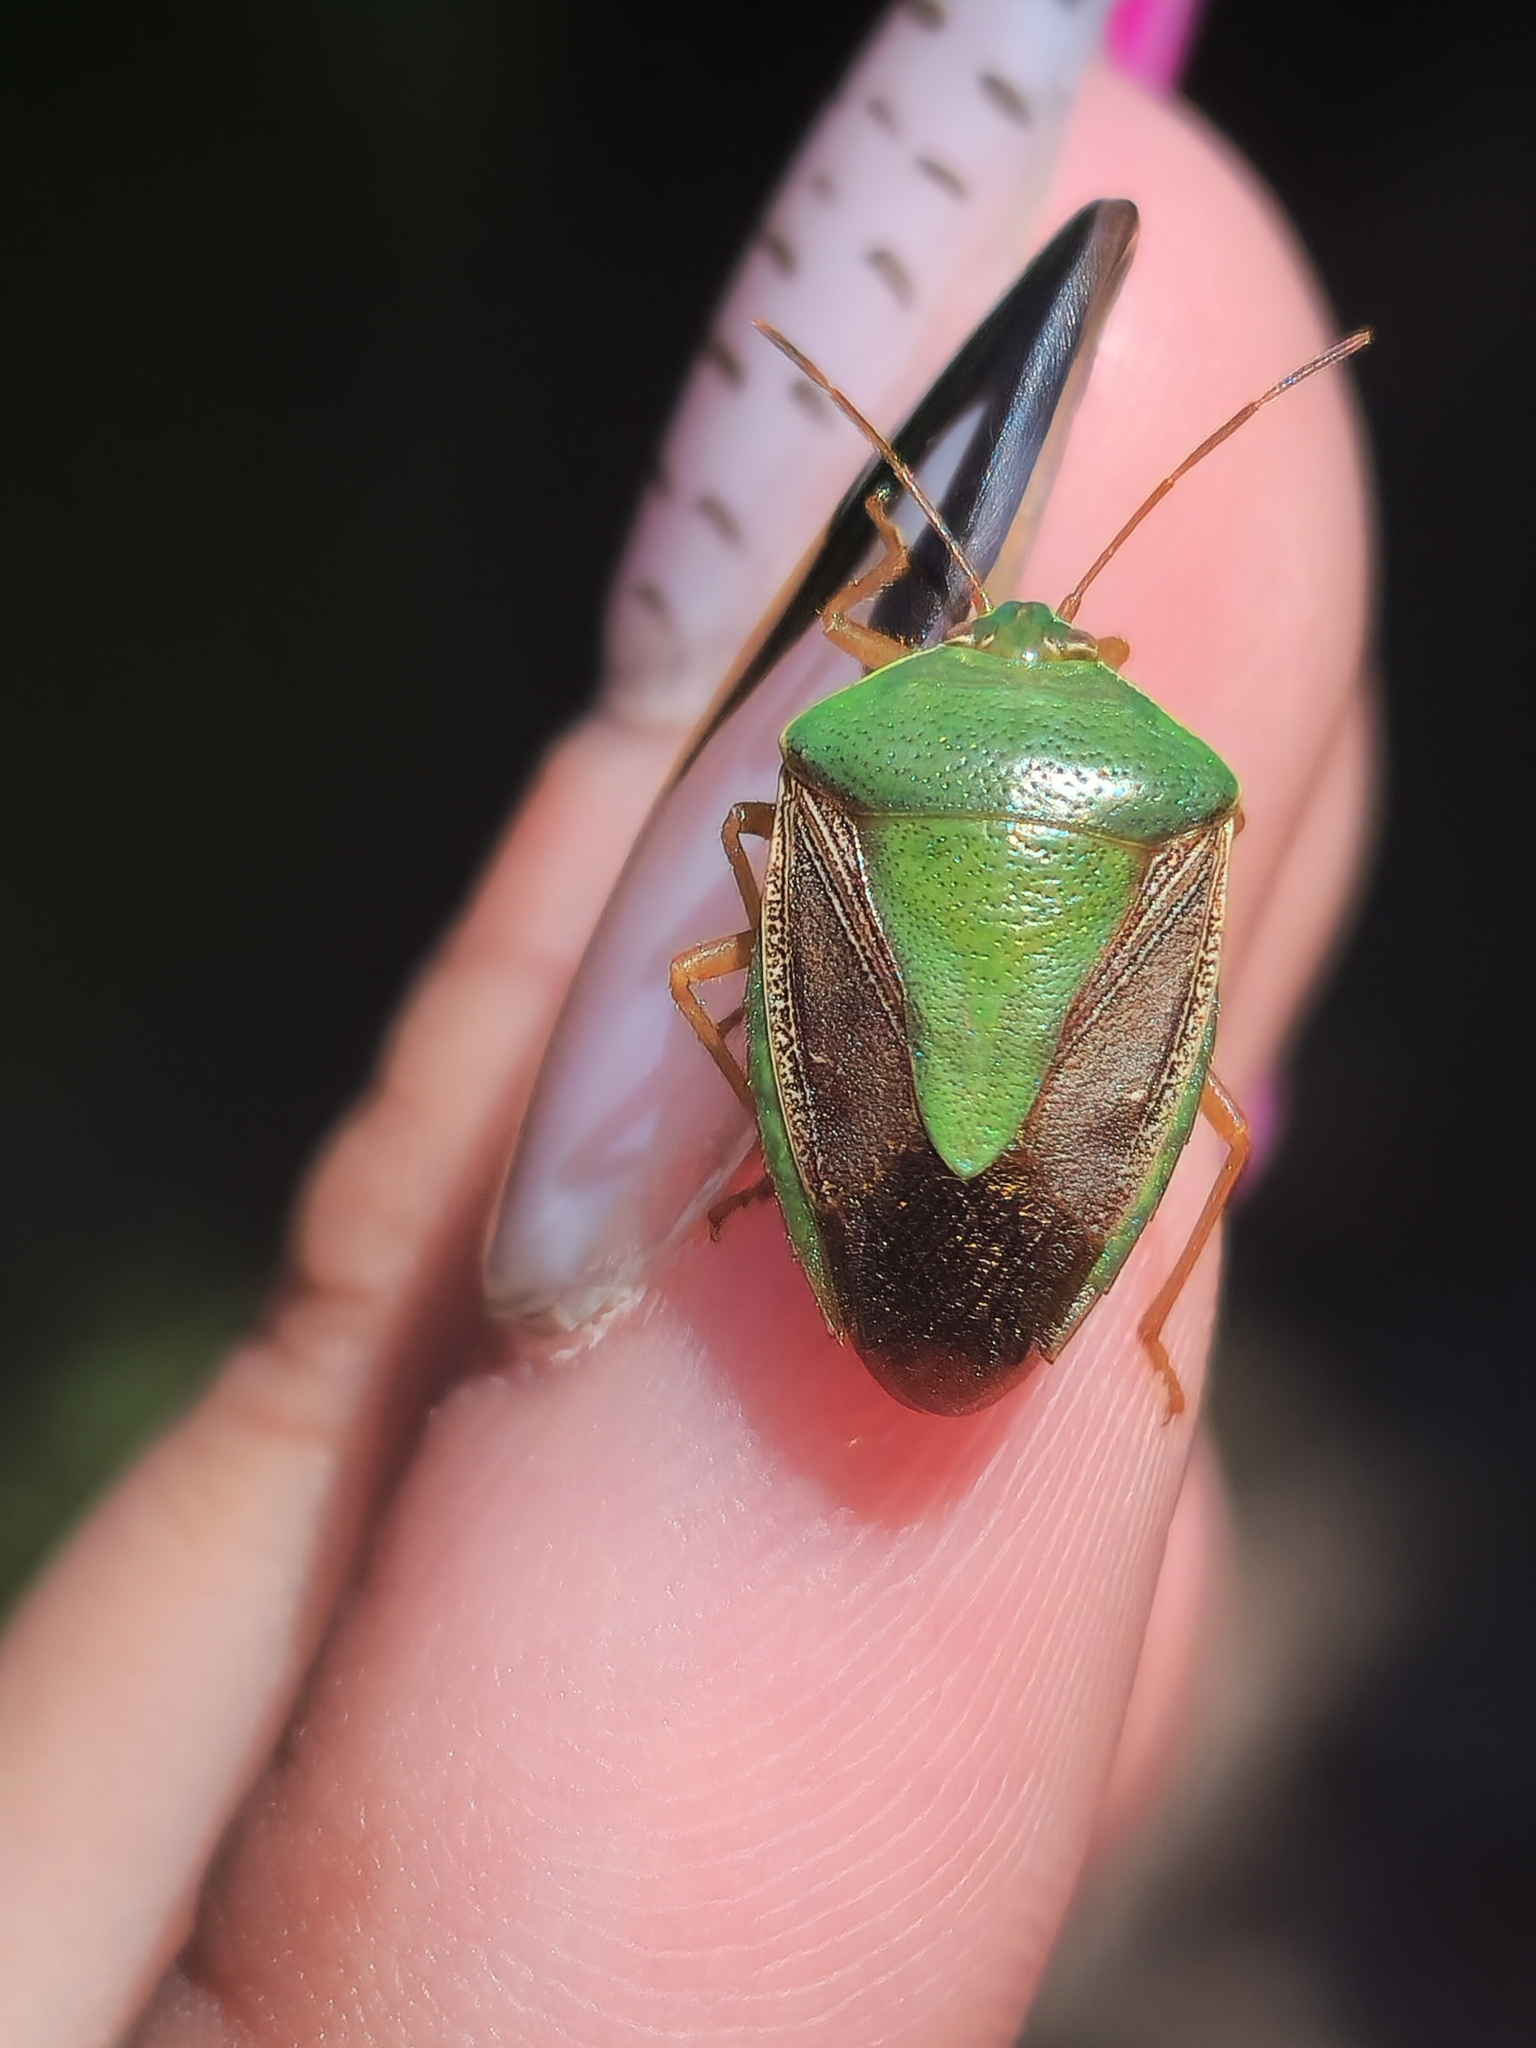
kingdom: Animalia
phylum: Arthropoda
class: Insecta
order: Hemiptera
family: Pentatomidae
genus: Edessa
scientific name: Edessa meditabunda
